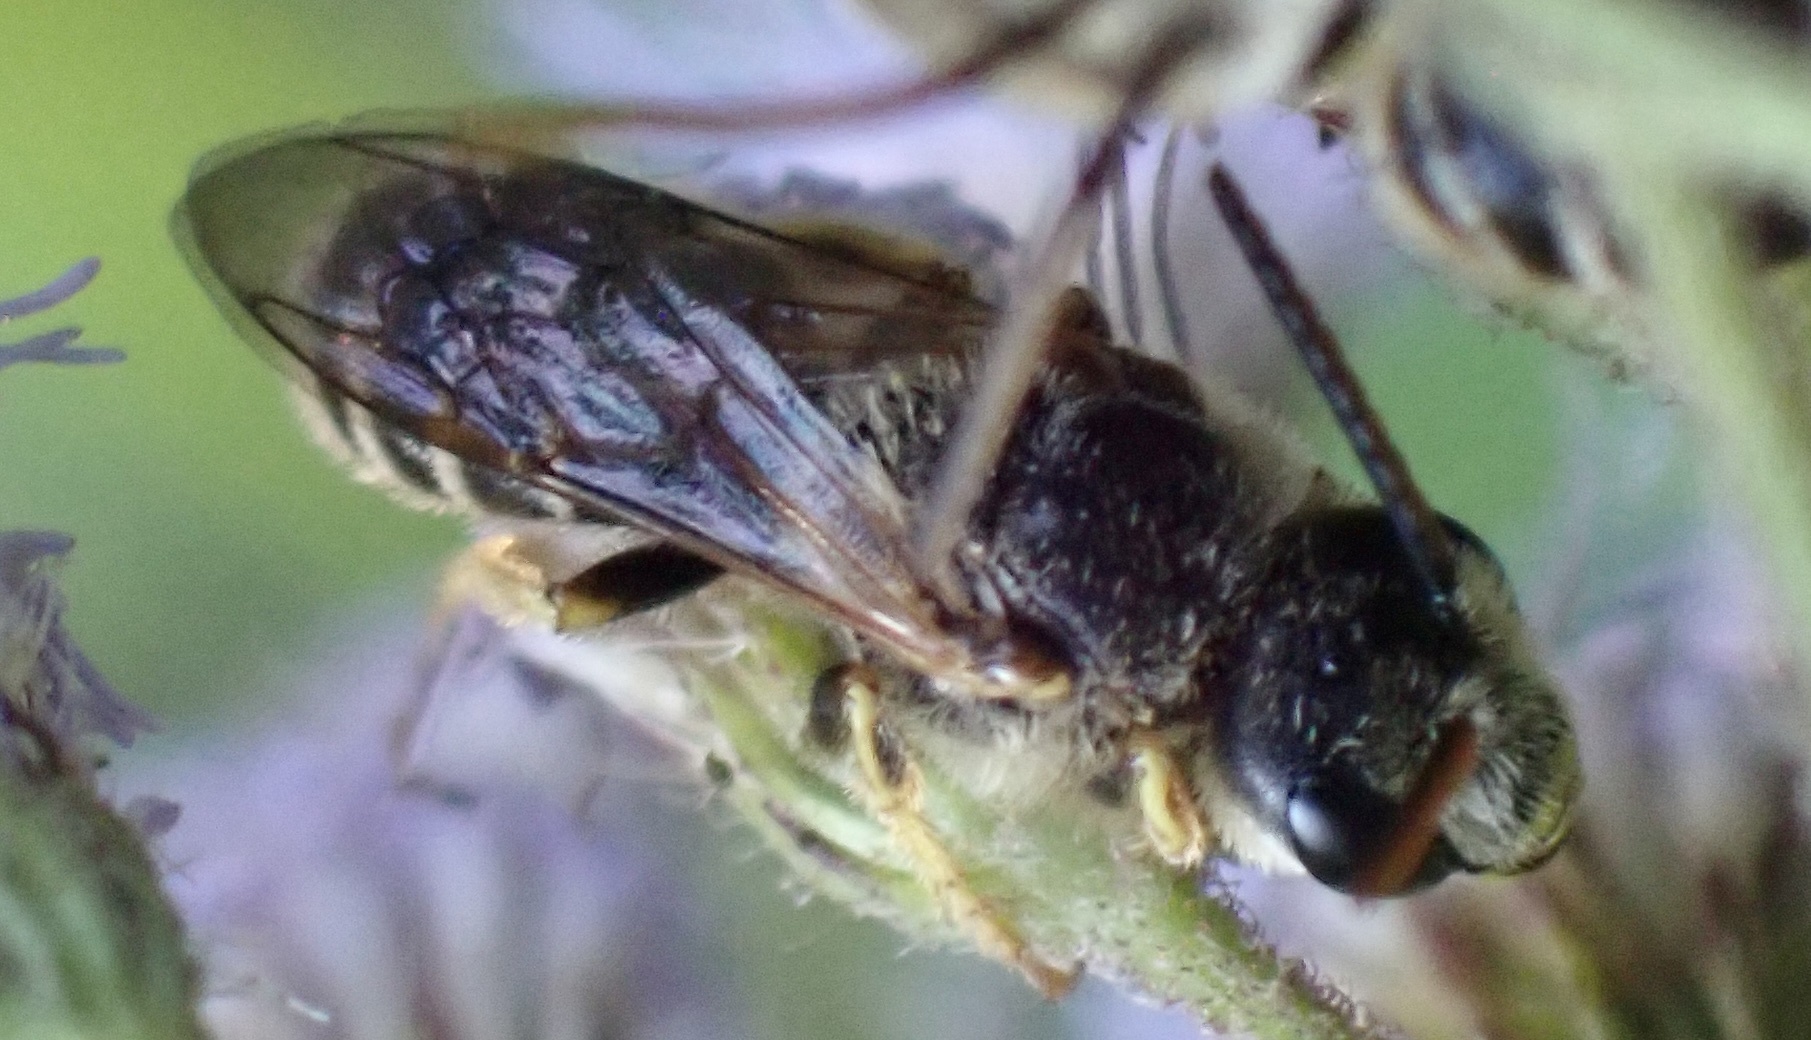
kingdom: Animalia
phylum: Arthropoda
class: Insecta
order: Hymenoptera
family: Halictidae
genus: Halictus
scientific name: Halictus ligatus
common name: Ligated furrow bee
